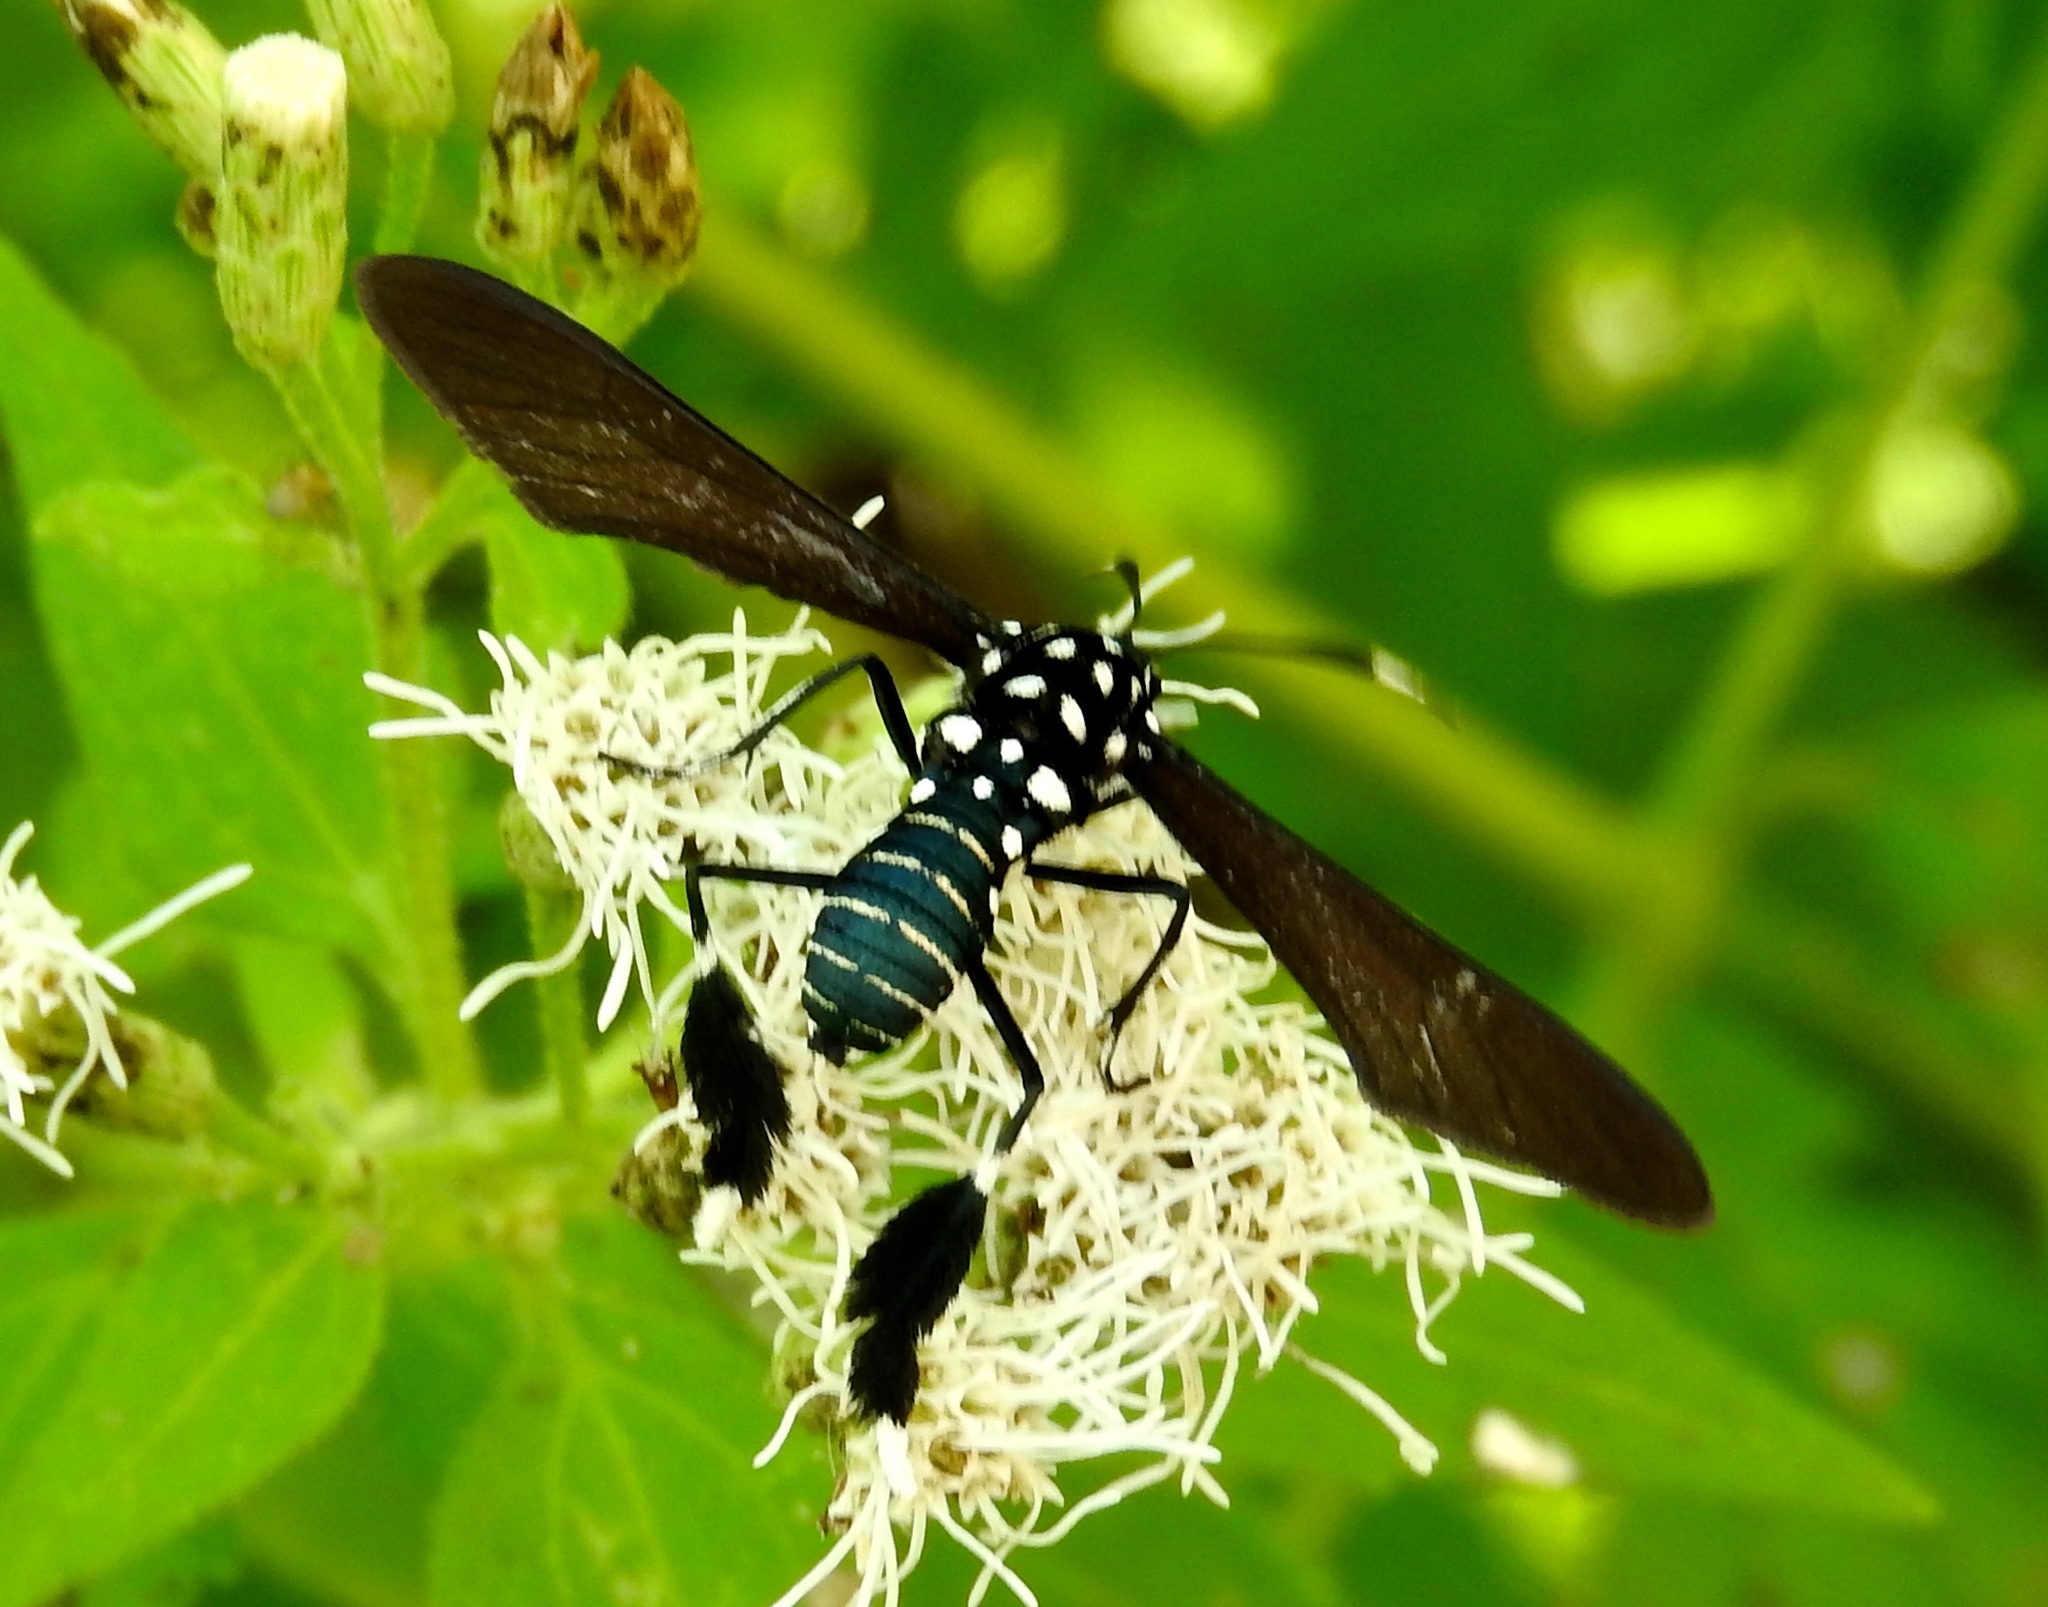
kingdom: Animalia
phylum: Arthropoda
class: Insecta
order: Lepidoptera
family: Erebidae
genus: Horama
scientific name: Horama plumipes
